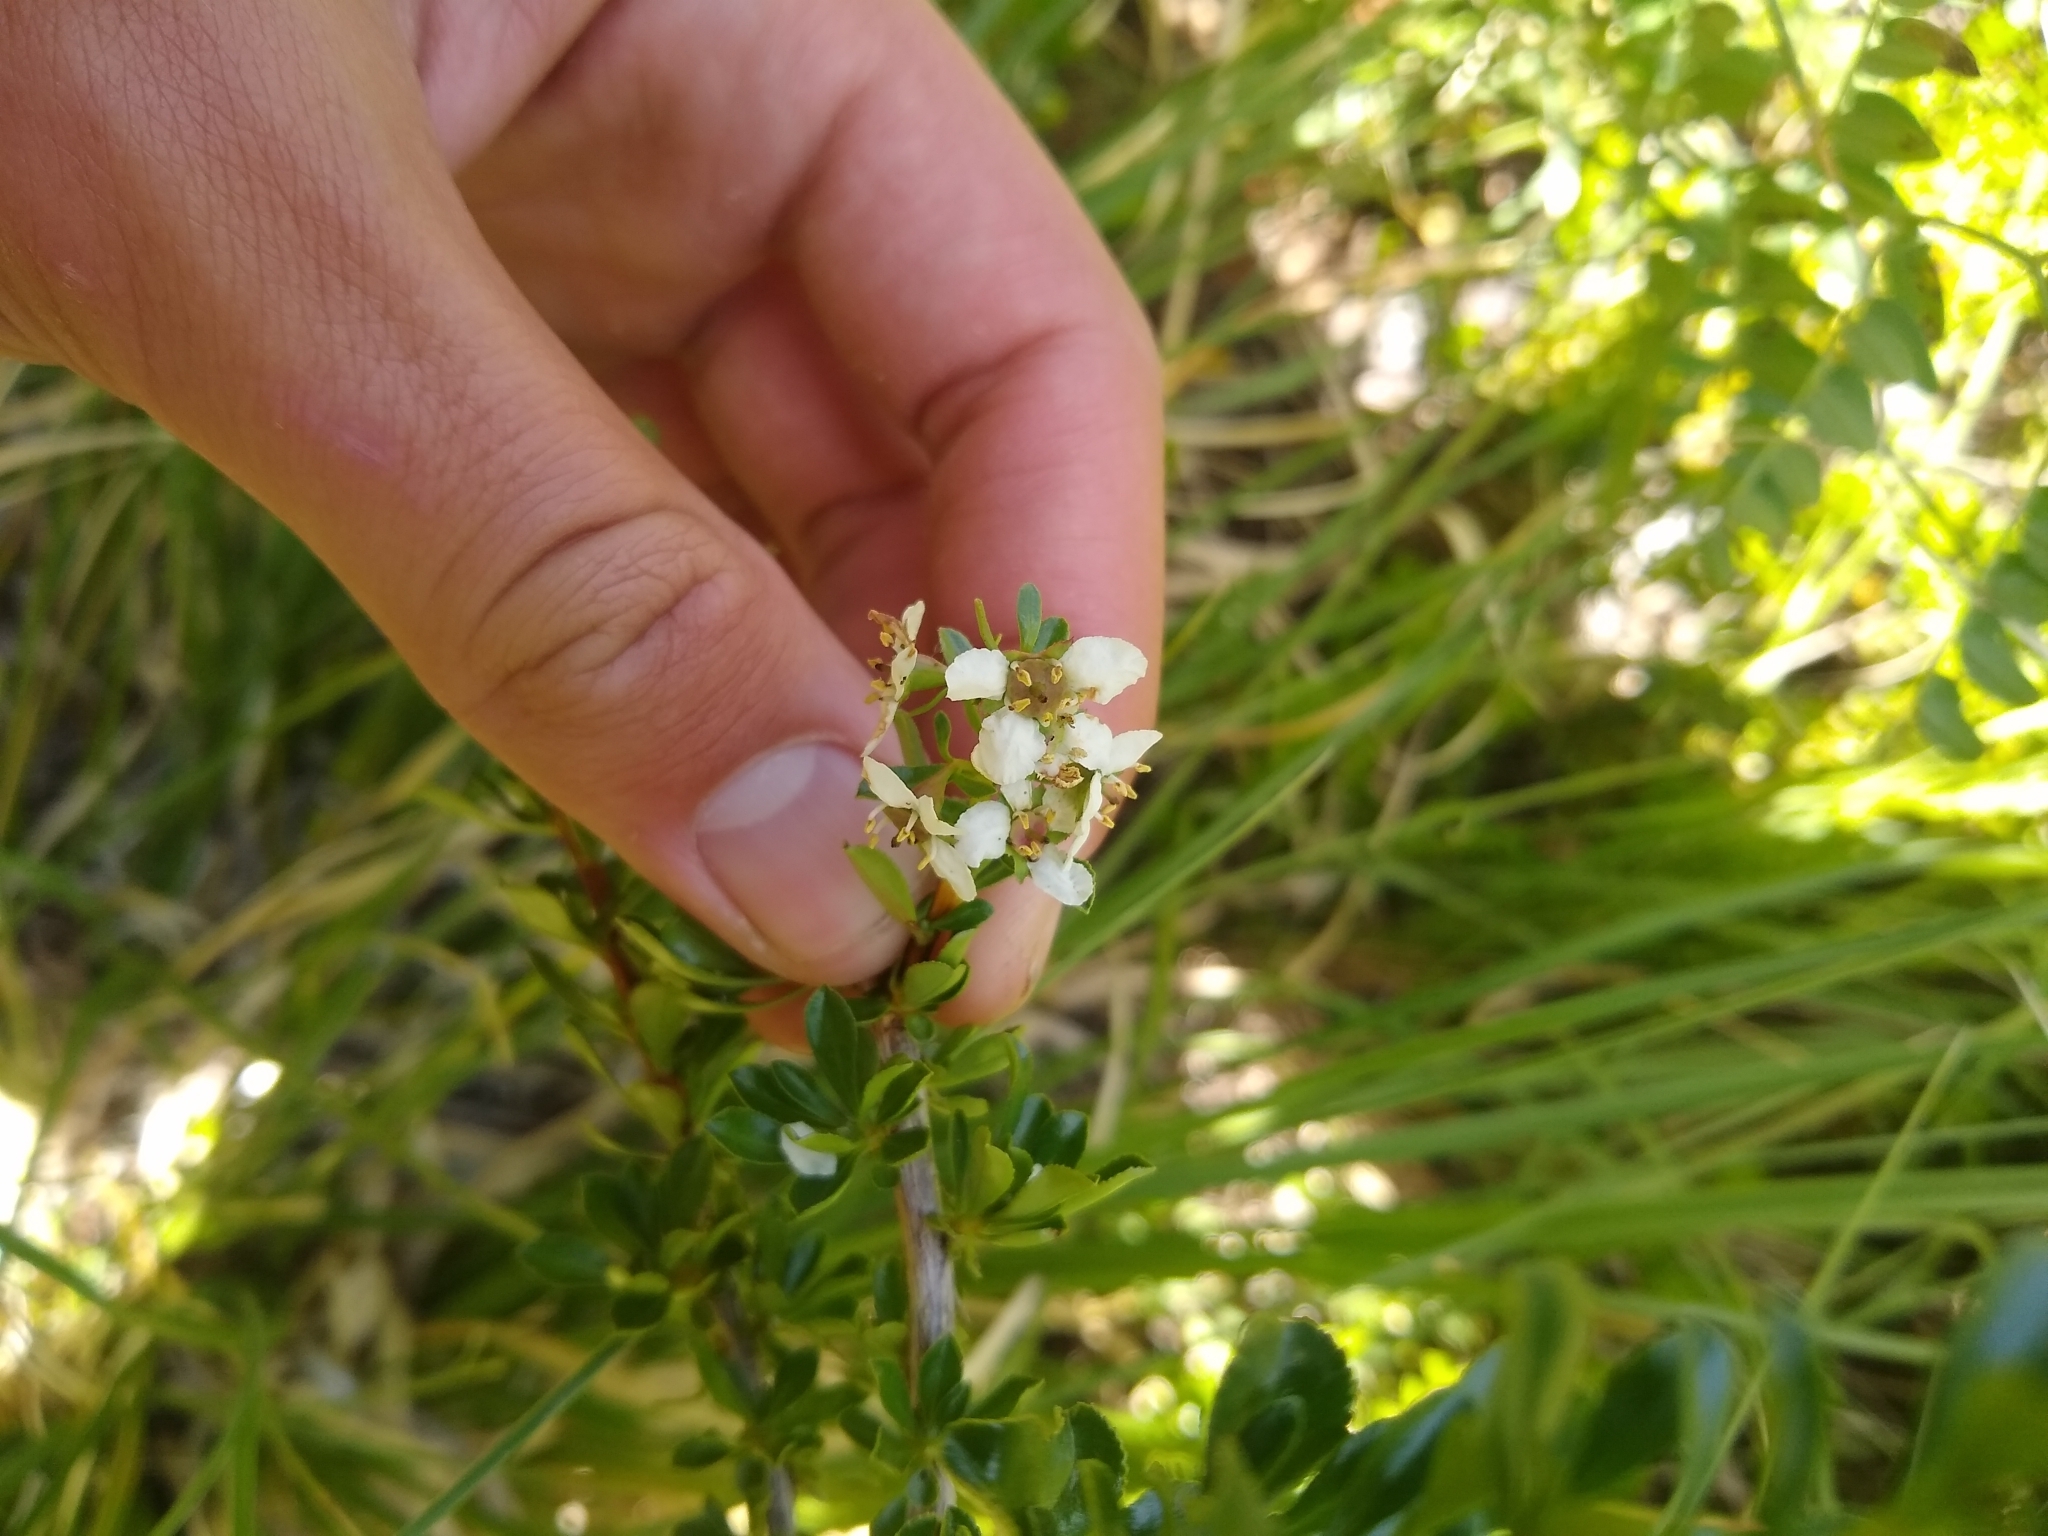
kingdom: Plantae
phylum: Tracheophyta
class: Magnoliopsida
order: Escalloniales
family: Escalloniaceae
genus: Escallonia
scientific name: Escallonia virgata
